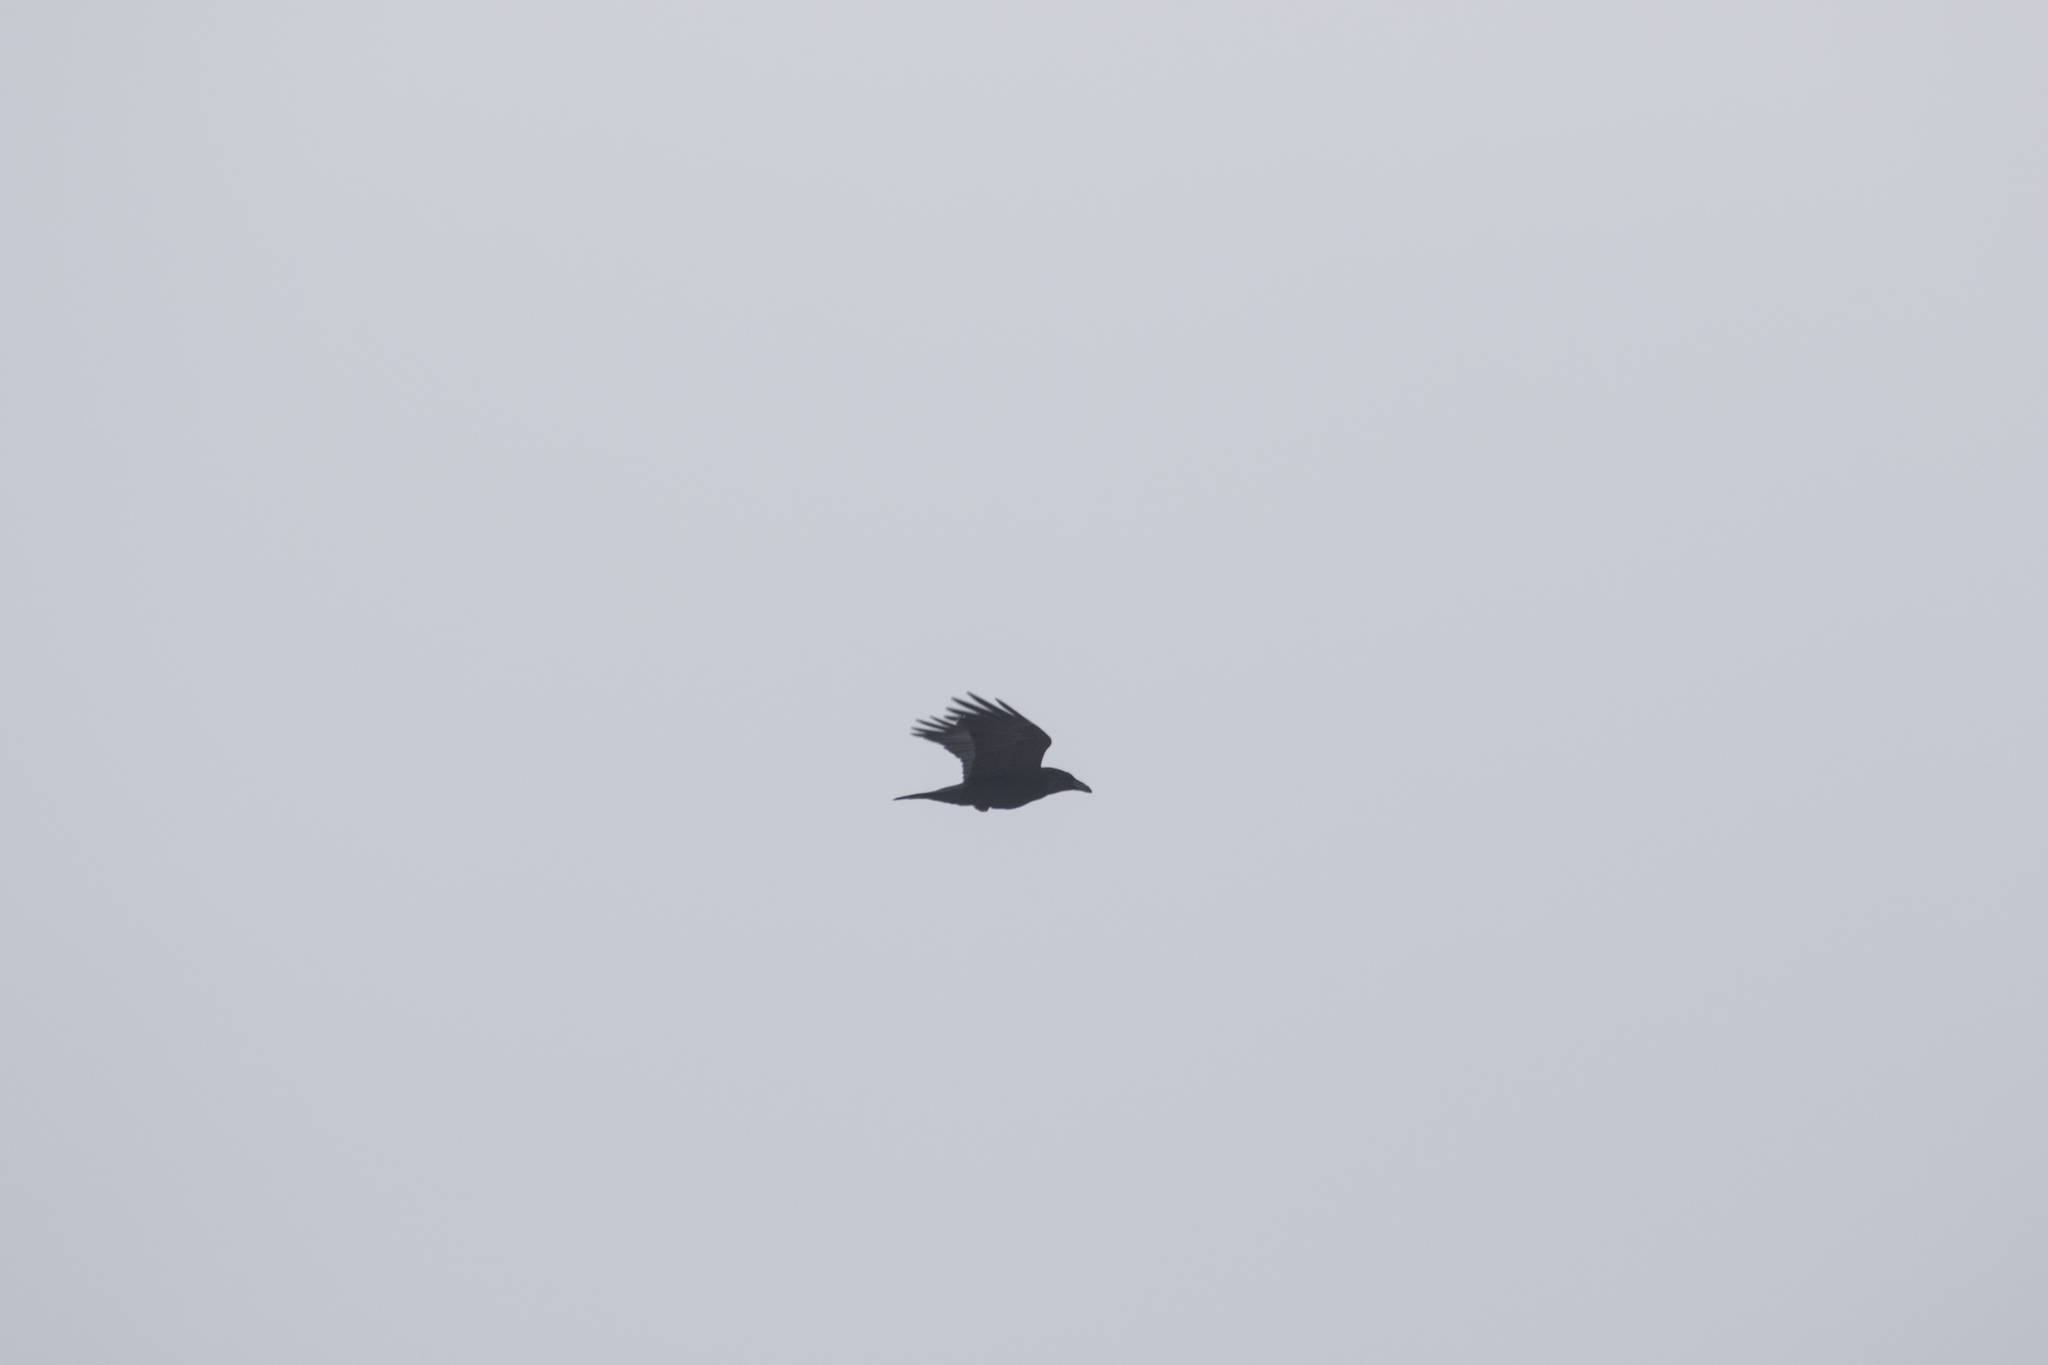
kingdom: Animalia
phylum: Chordata
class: Aves
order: Passeriformes
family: Corvidae
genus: Corvus
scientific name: Corvus corax
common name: Common raven
